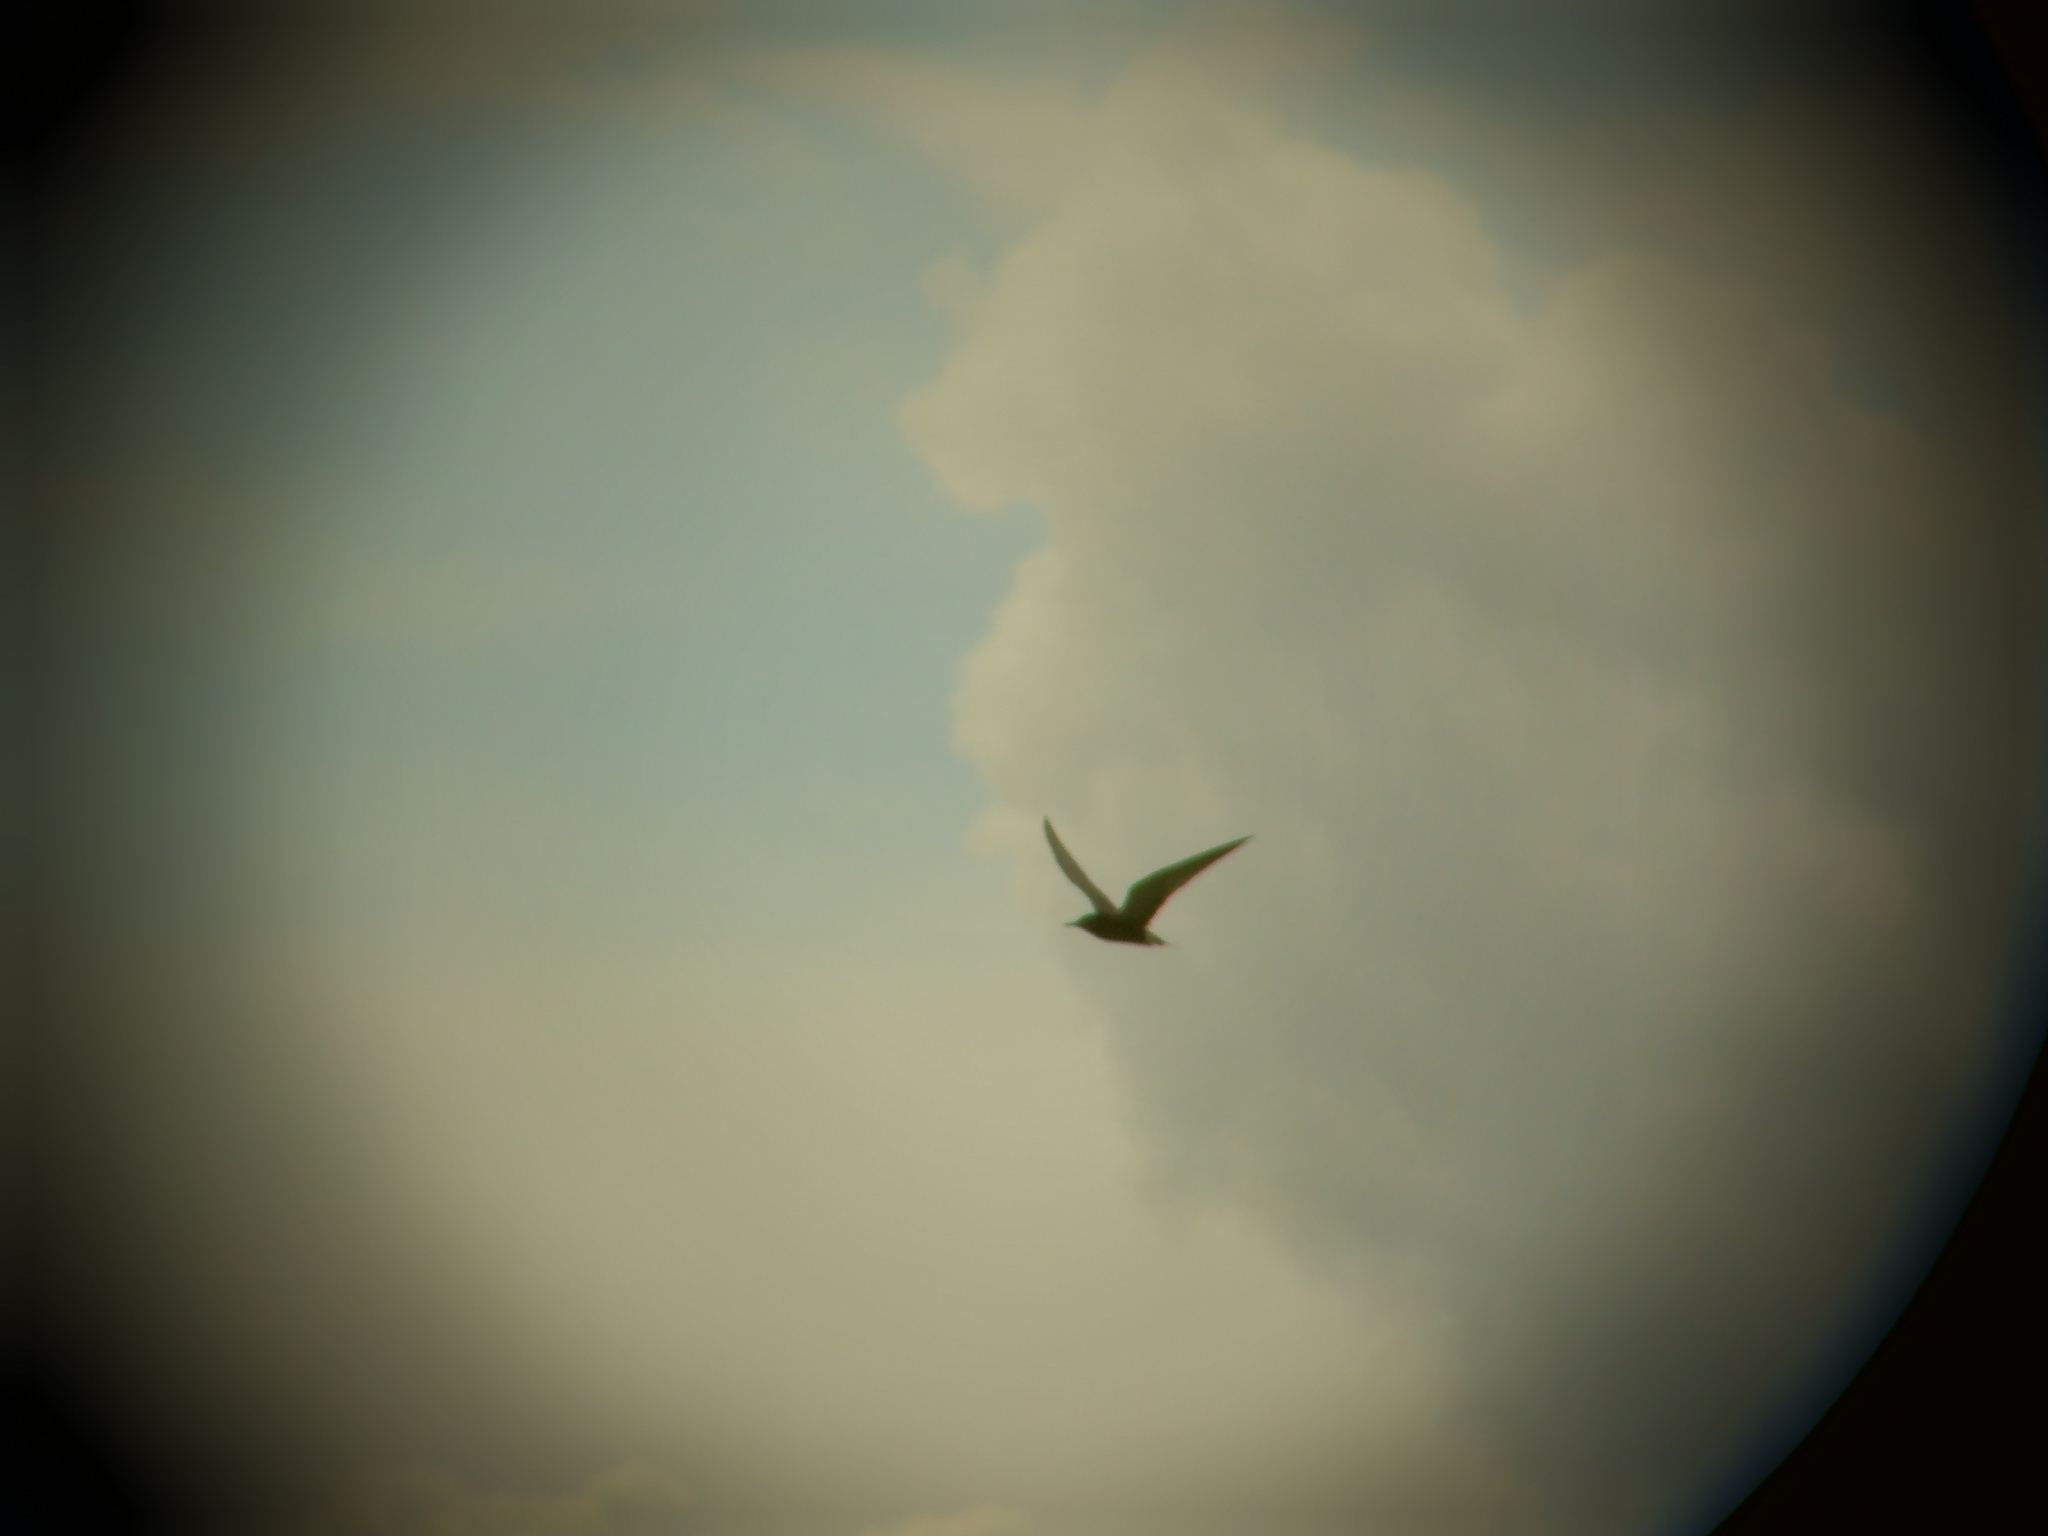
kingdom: Animalia
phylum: Chordata
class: Aves
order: Charadriiformes
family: Laridae
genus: Chlidonias
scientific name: Chlidonias niger
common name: Black tern
